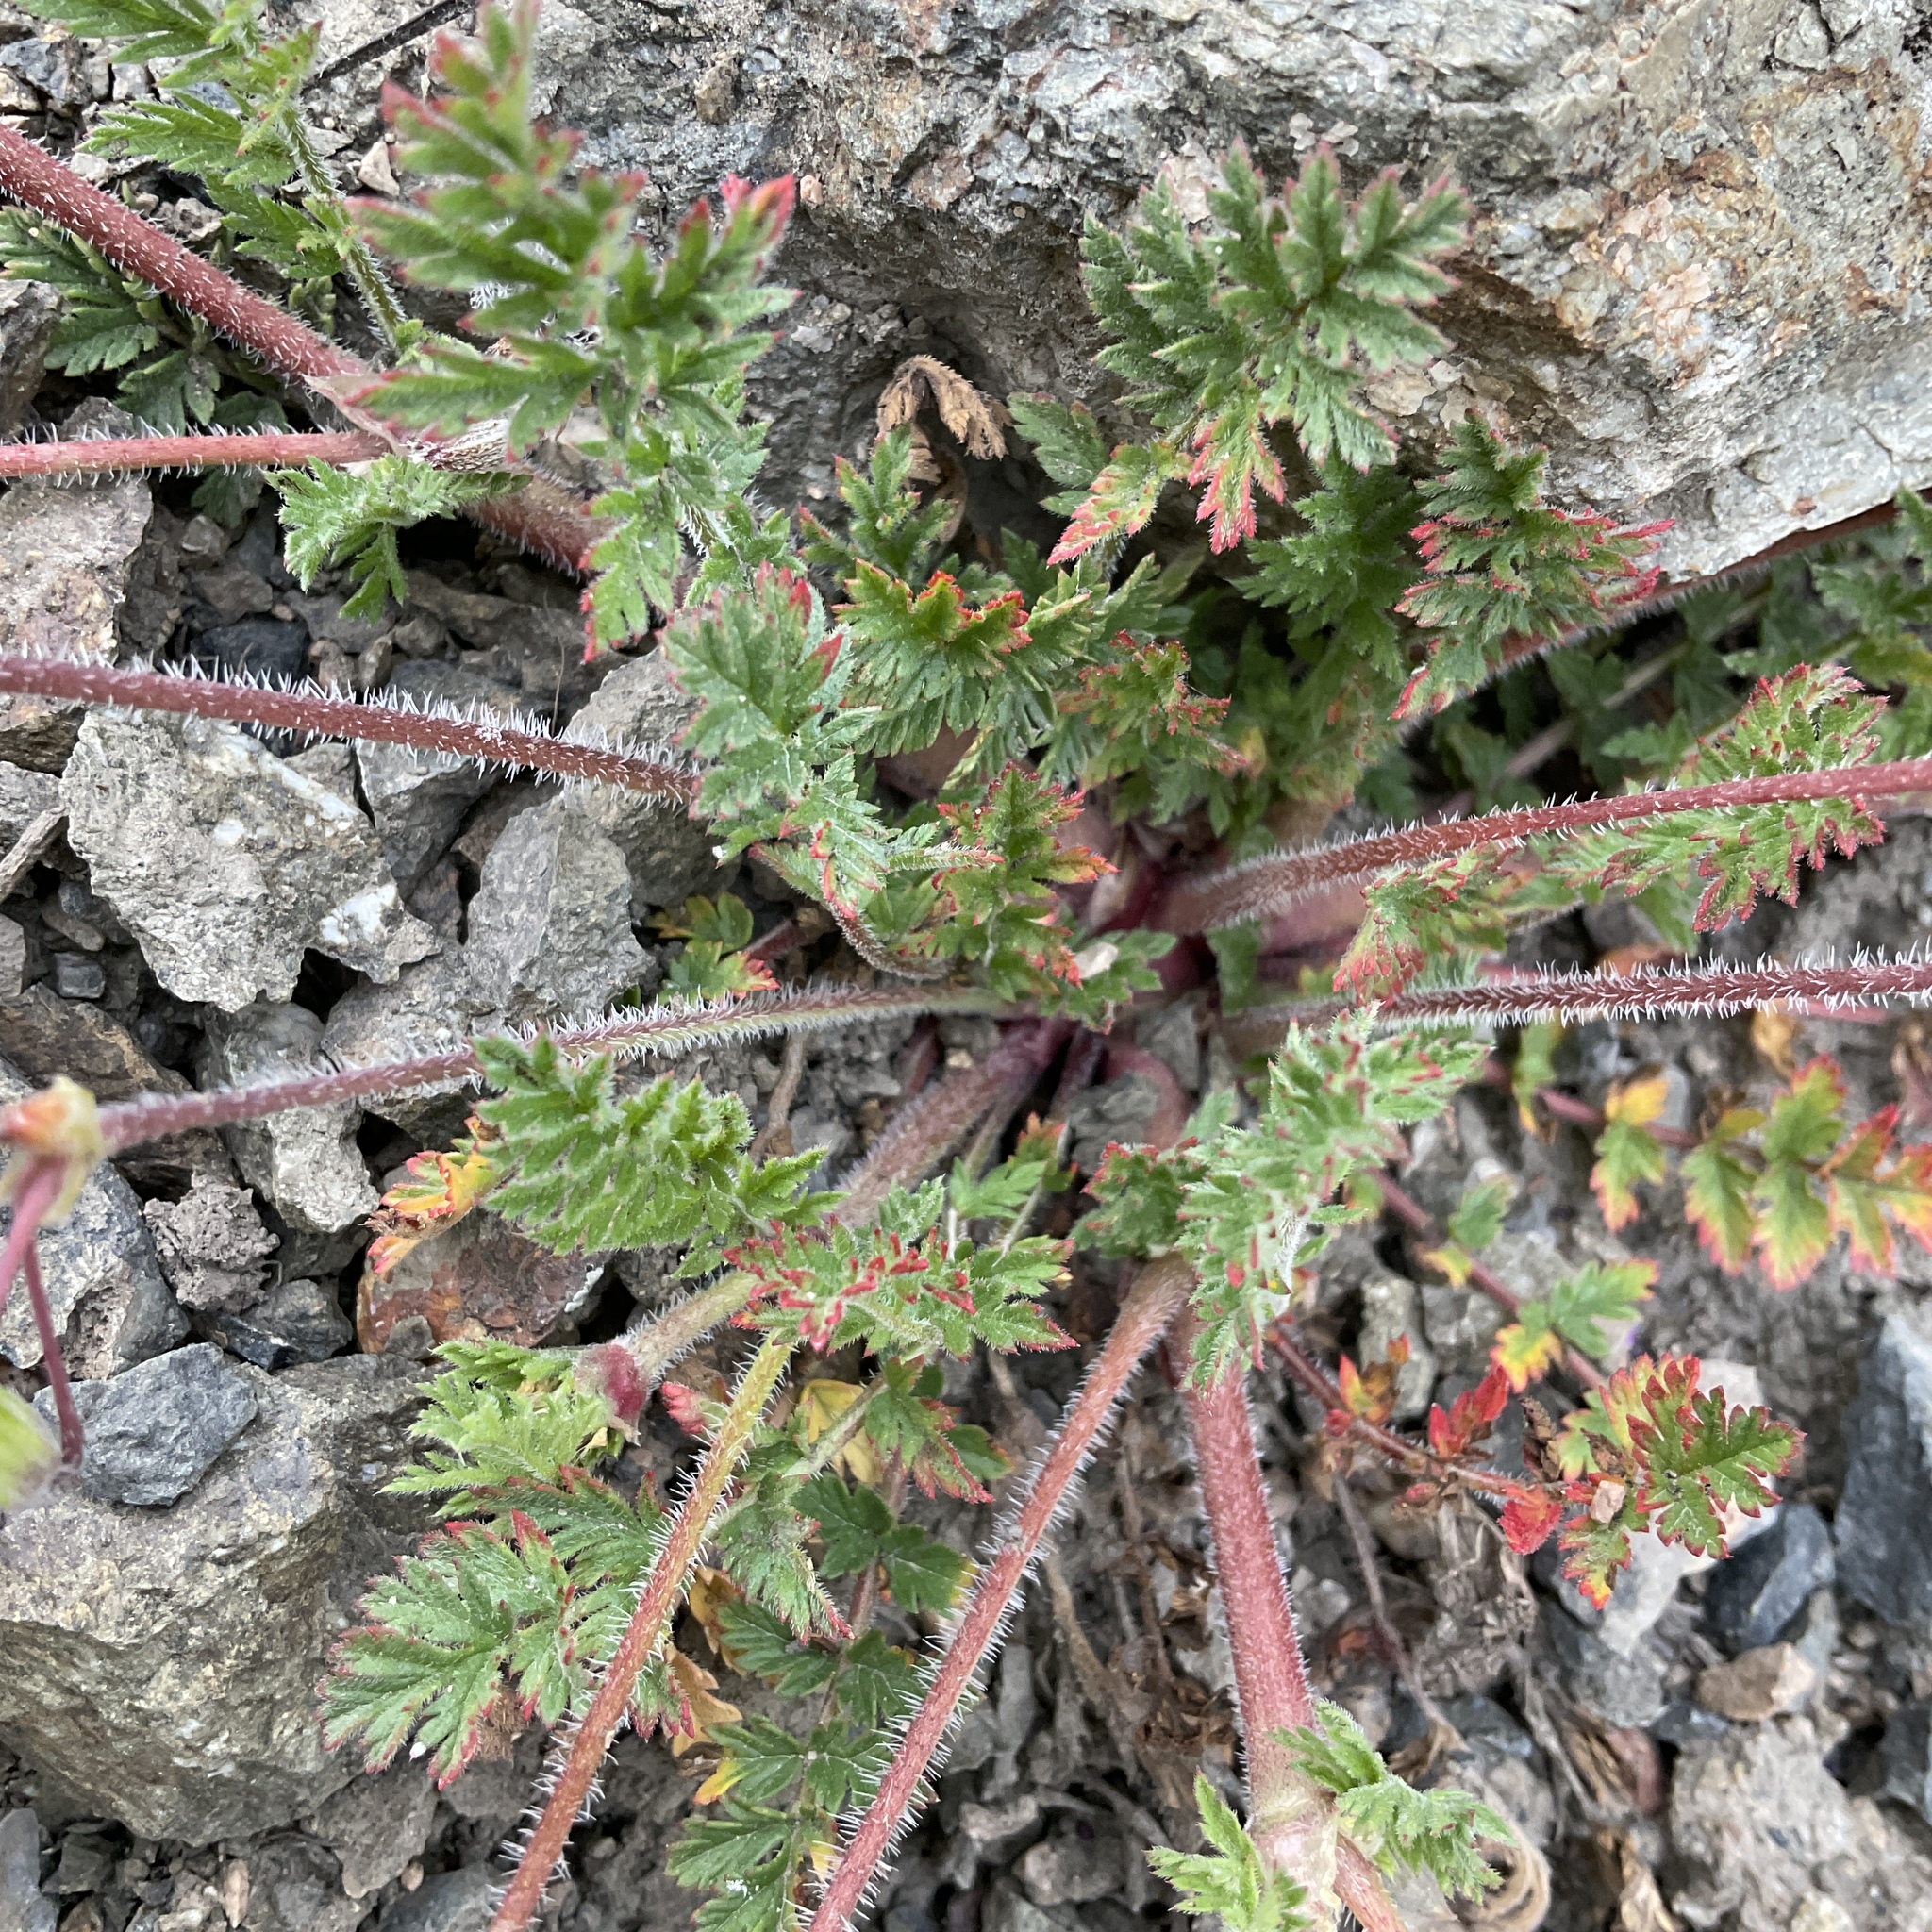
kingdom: Plantae
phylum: Tracheophyta
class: Magnoliopsida
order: Geraniales
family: Geraniaceae
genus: Erodium
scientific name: Erodium cicutarium
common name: Common stork's-bill
